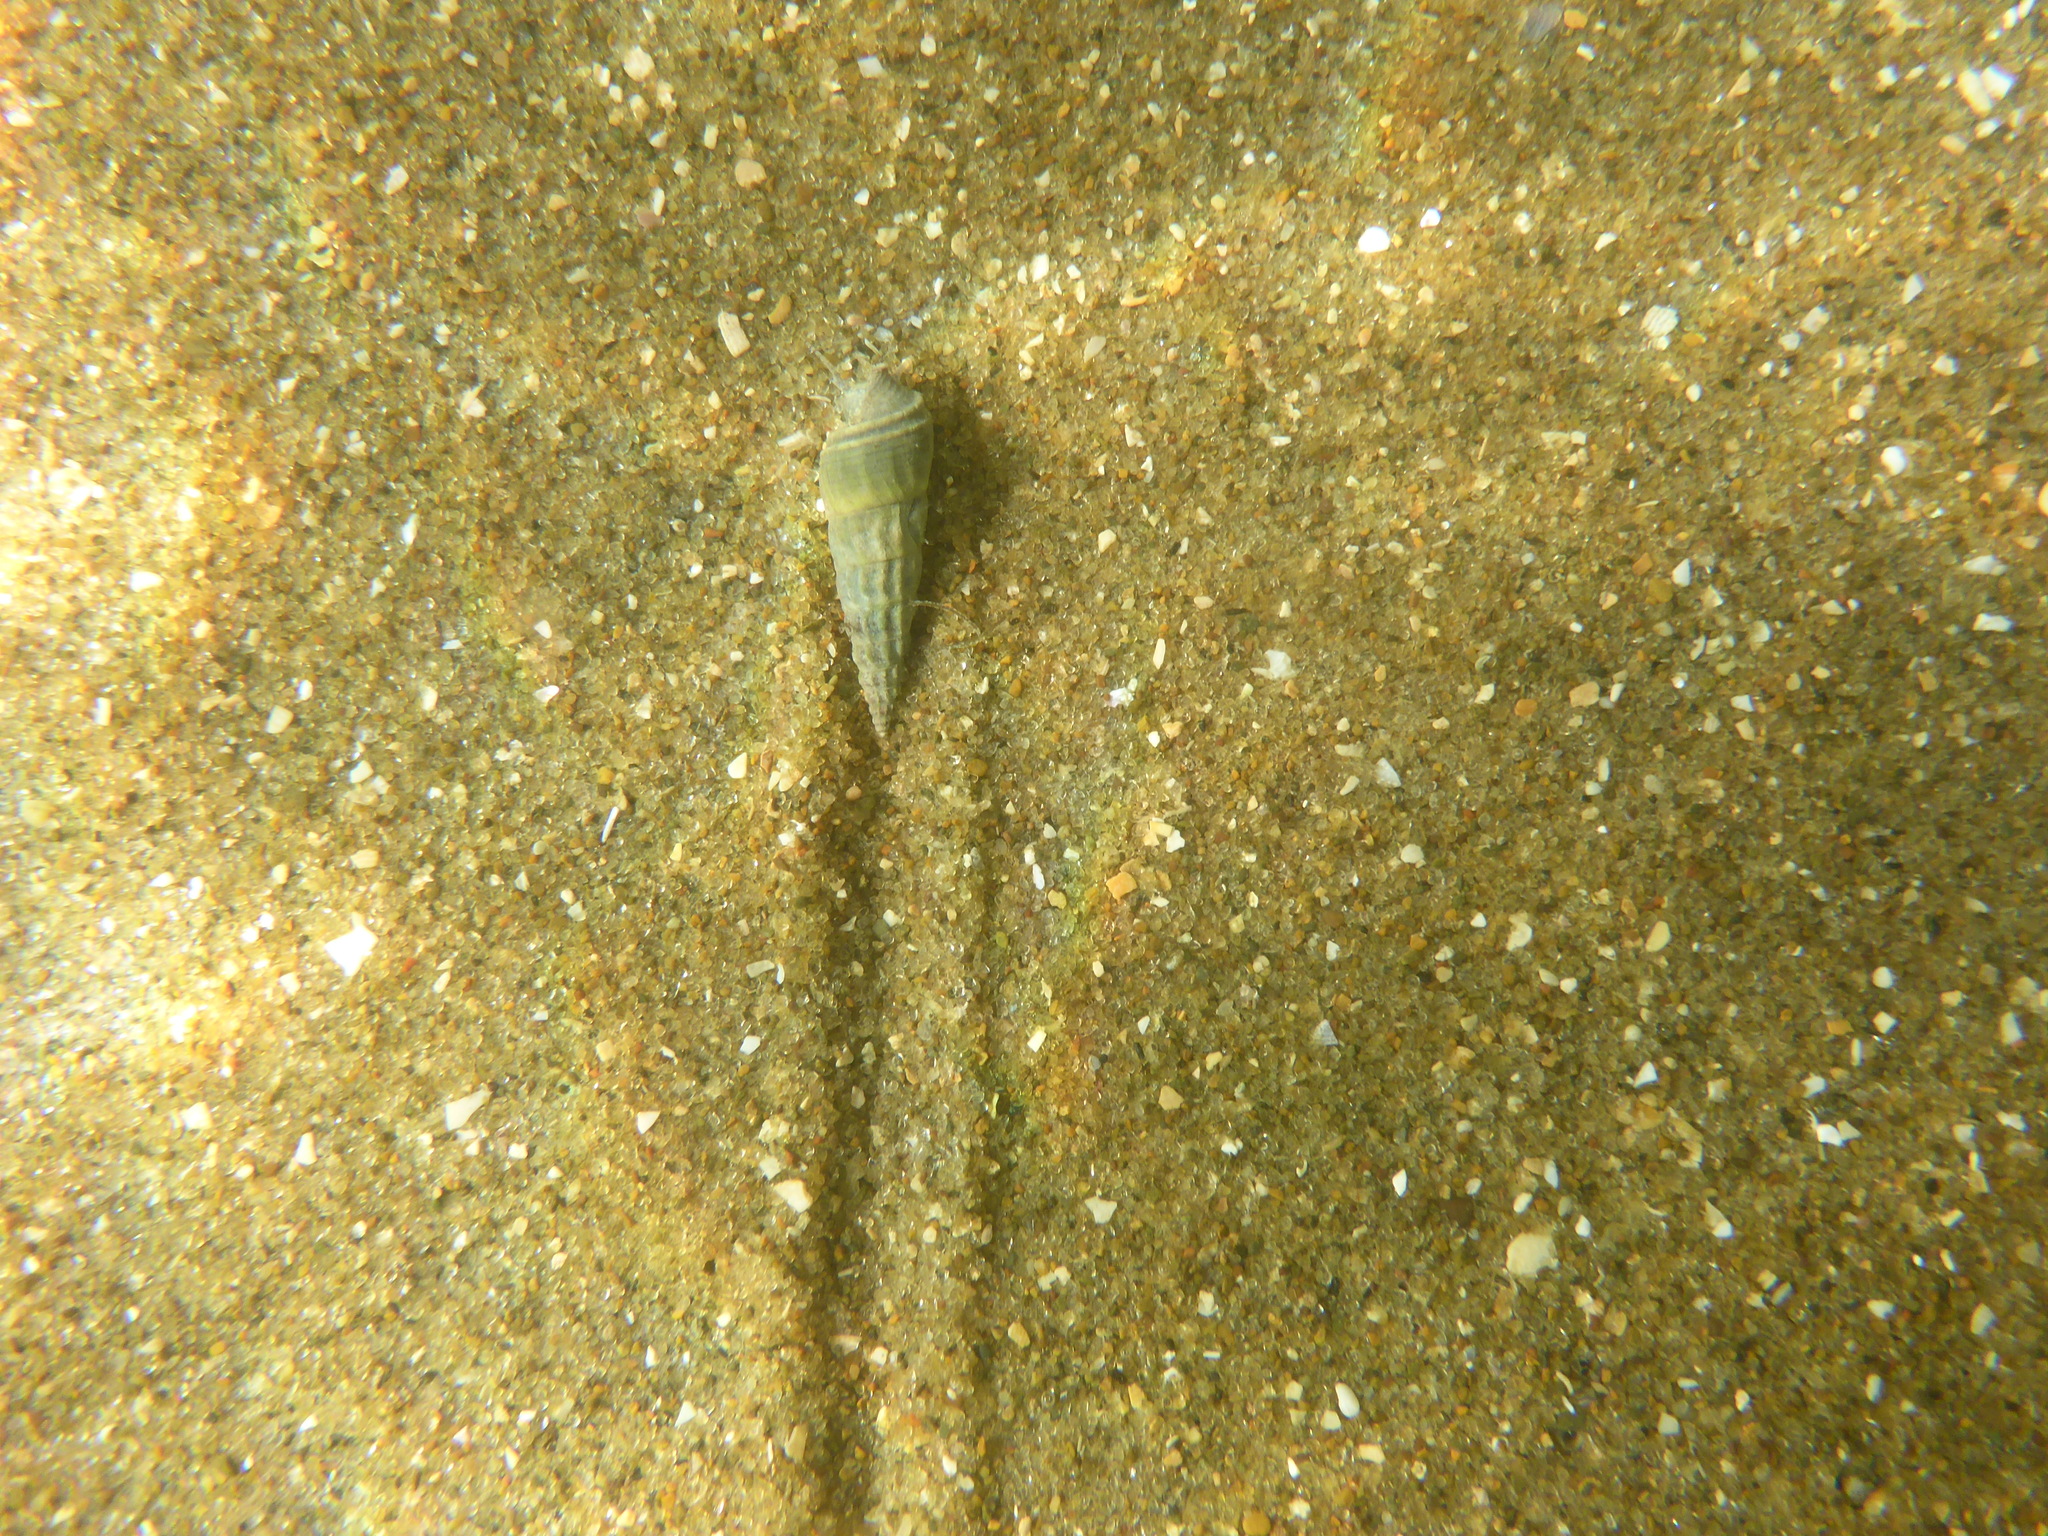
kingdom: Animalia
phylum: Mollusca
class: Gastropoda
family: Batillariidae
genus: Zeacumantus
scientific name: Zeacumantus lutulentus
